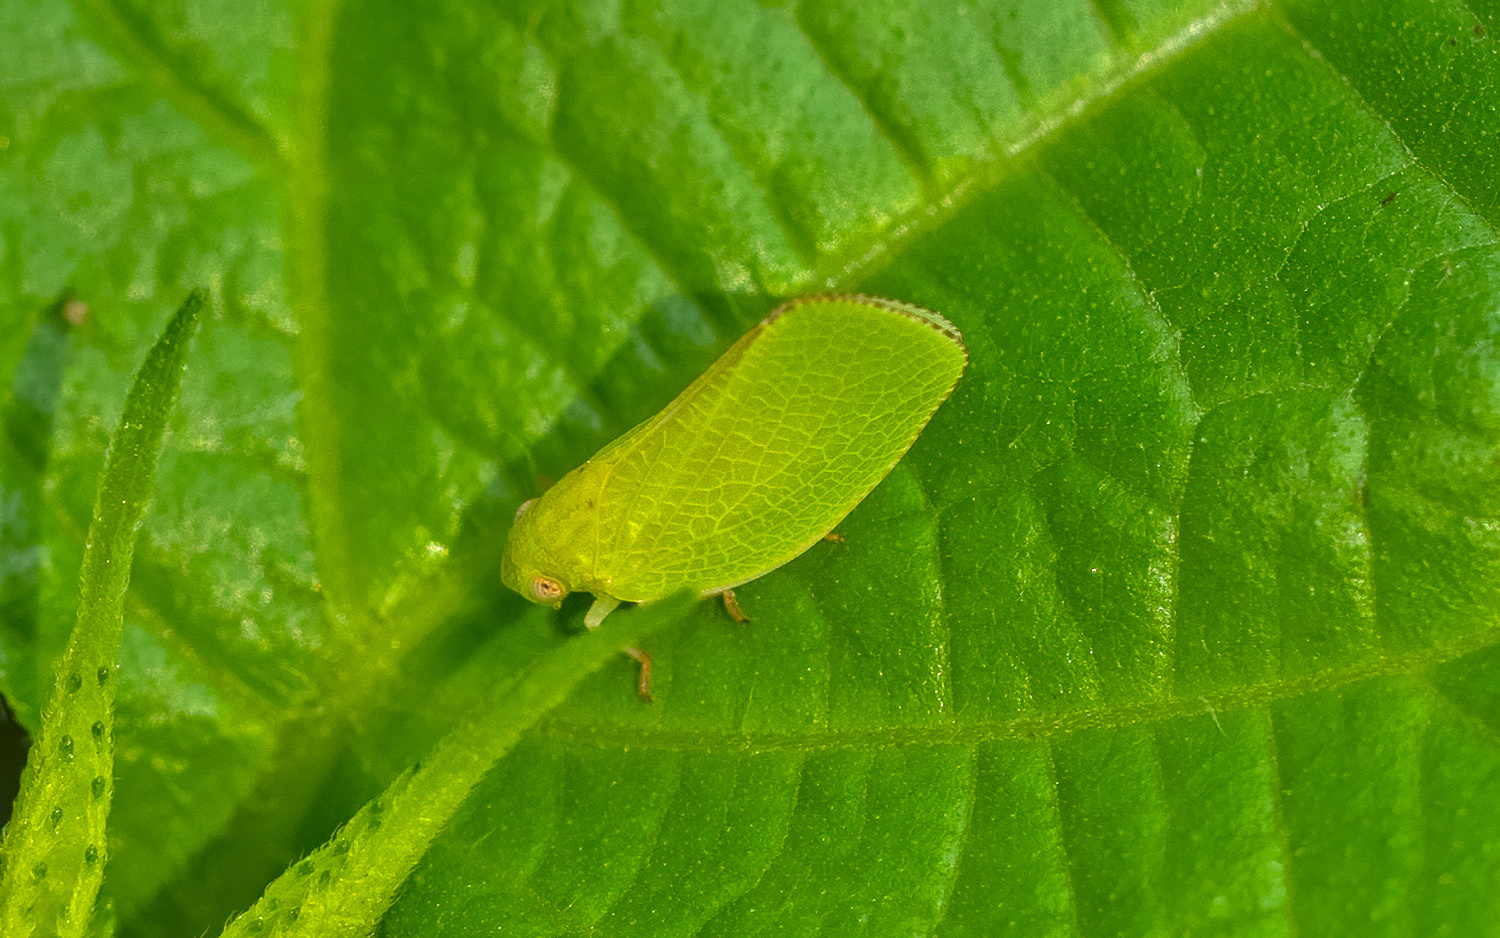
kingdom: Animalia
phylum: Arthropoda
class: Insecta
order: Hemiptera
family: Acanaloniidae
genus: Acanalonia
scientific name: Acanalonia conica
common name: Green cone-headed planthopper
